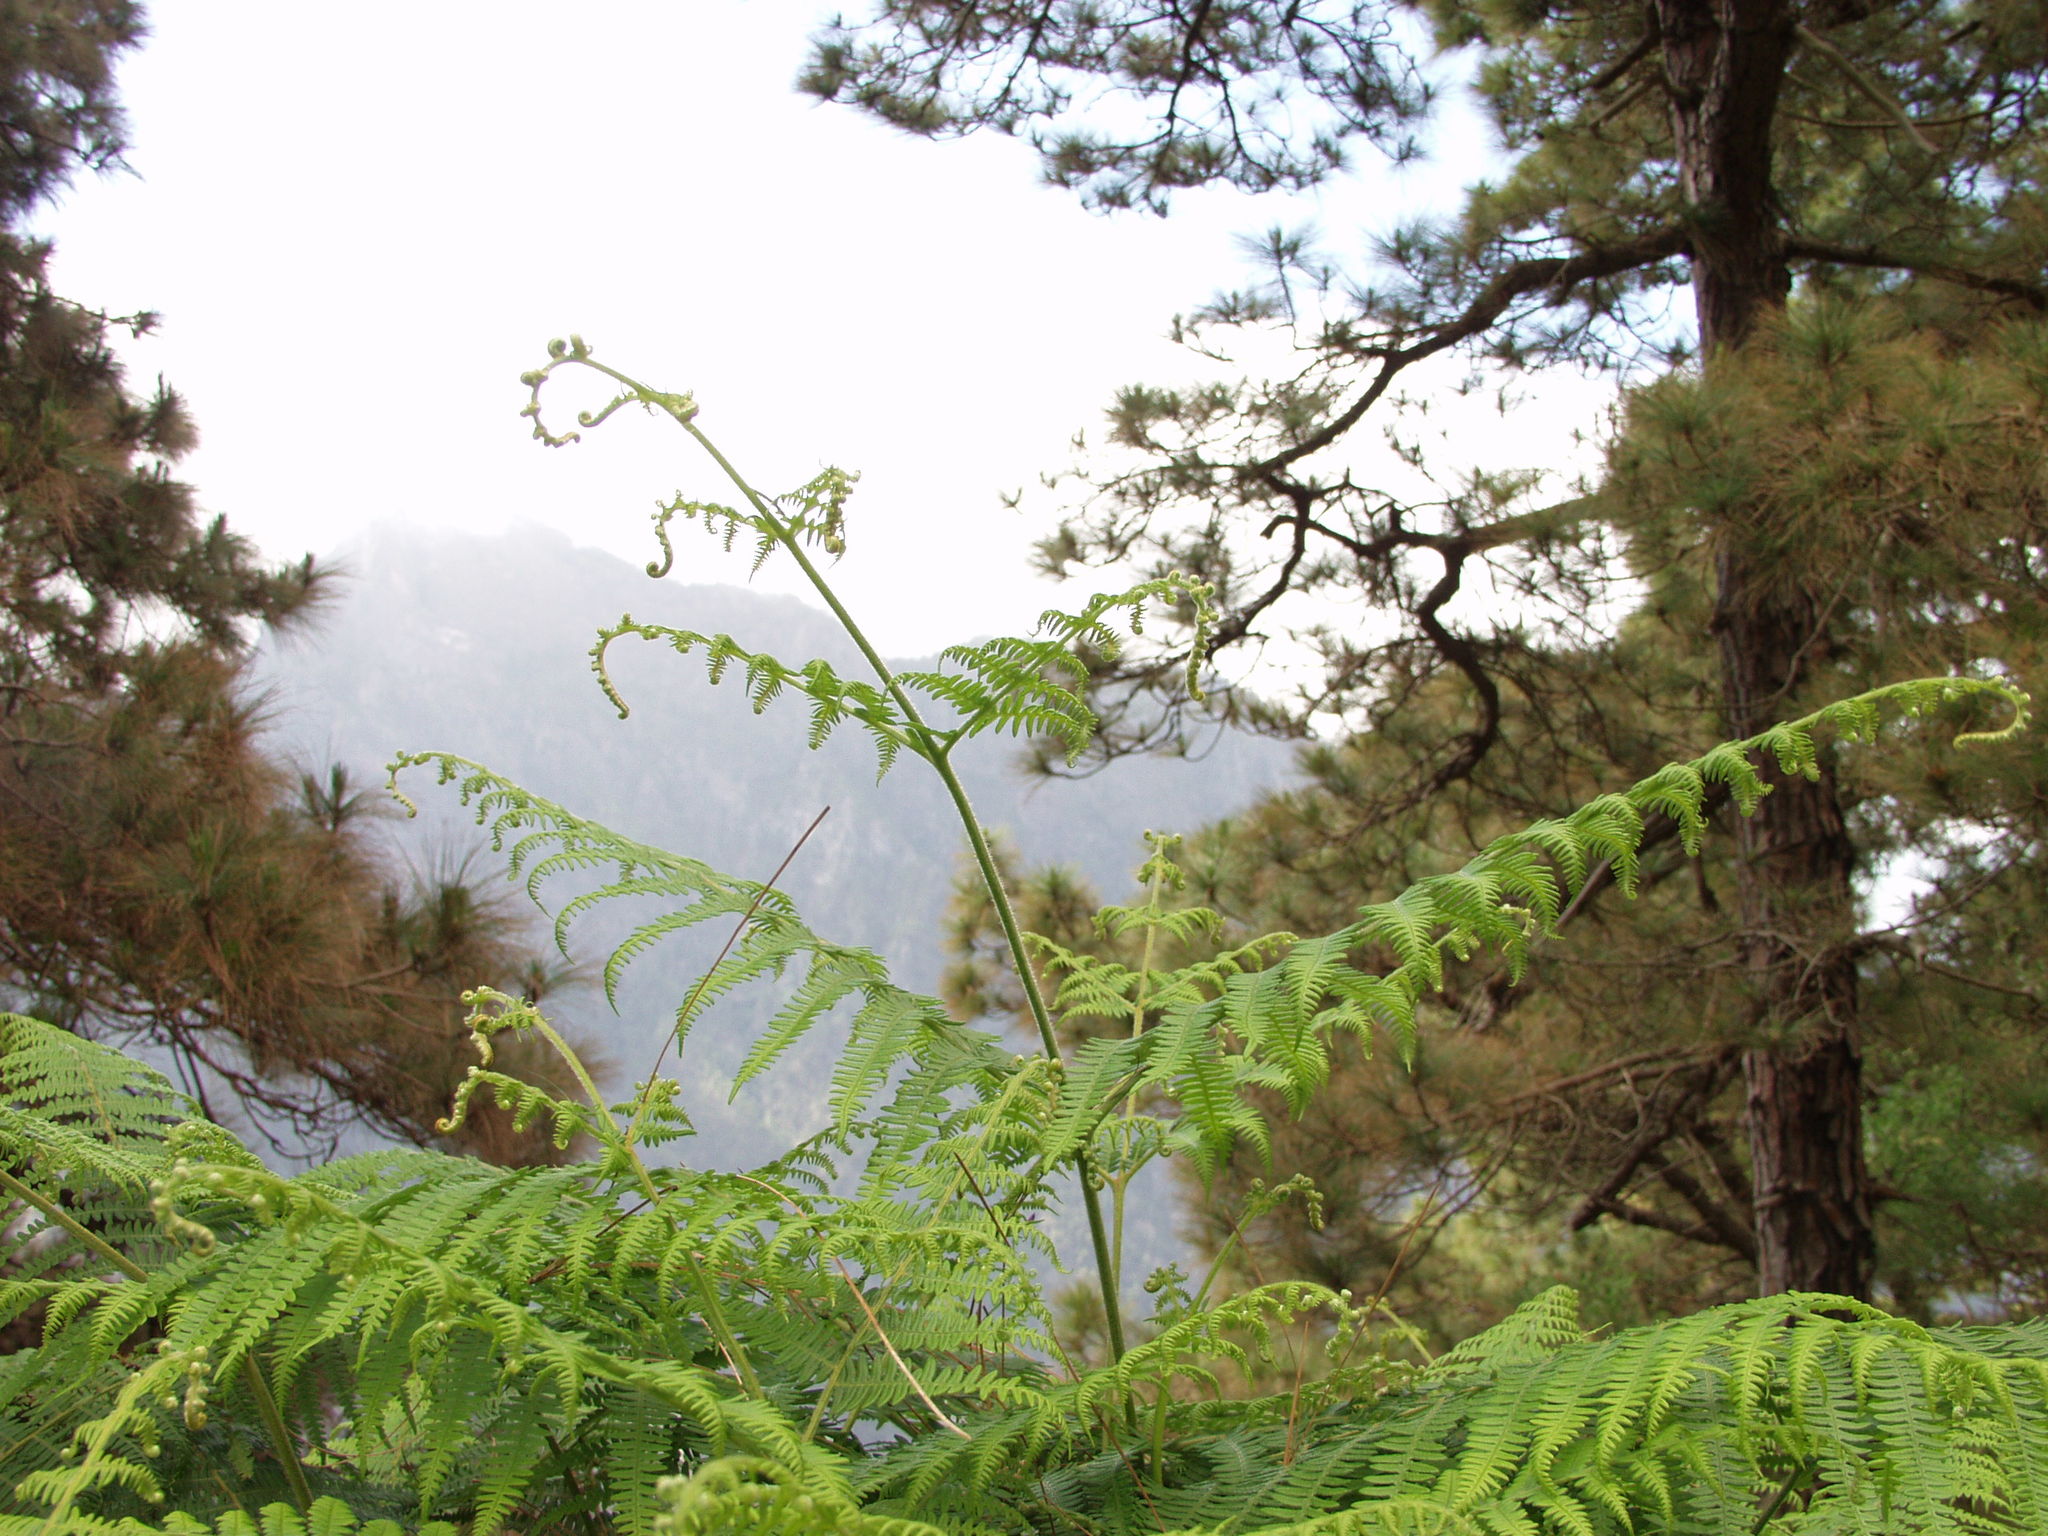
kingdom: Plantae
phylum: Tracheophyta
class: Polypodiopsida
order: Polypodiales
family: Dennstaedtiaceae
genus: Pteridium
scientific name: Pteridium aquilinum
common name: Bracken
